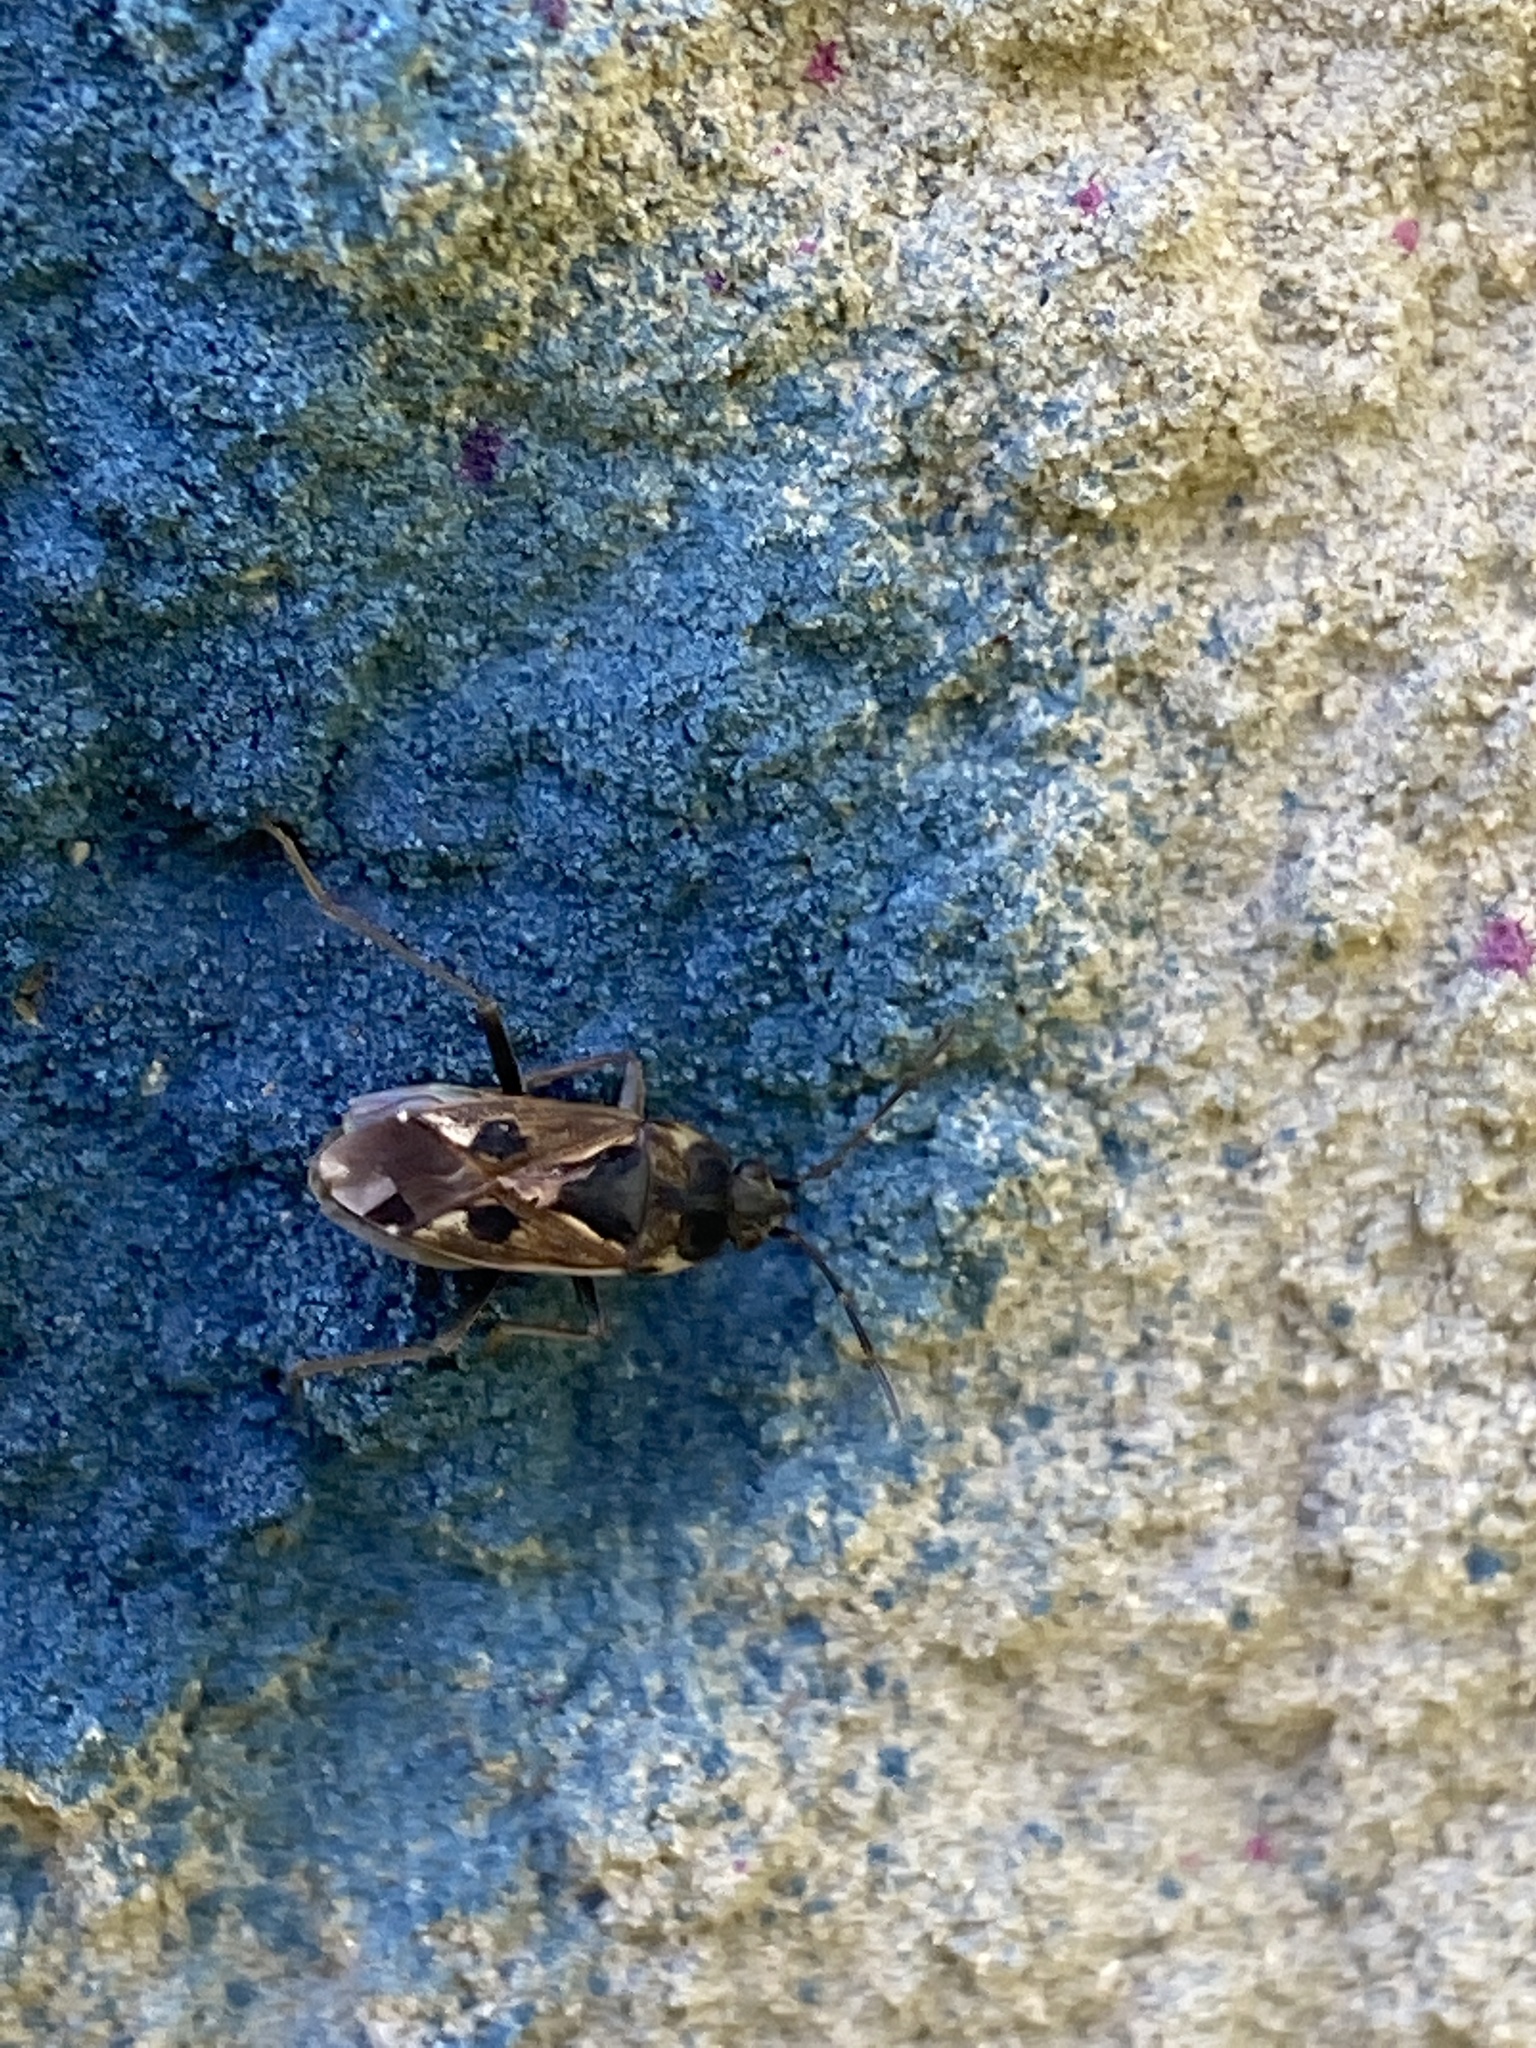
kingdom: Animalia
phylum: Arthropoda
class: Insecta
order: Hemiptera
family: Rhyparochromidae
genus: Rhyparochromus
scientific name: Rhyparochromus vulgaris
